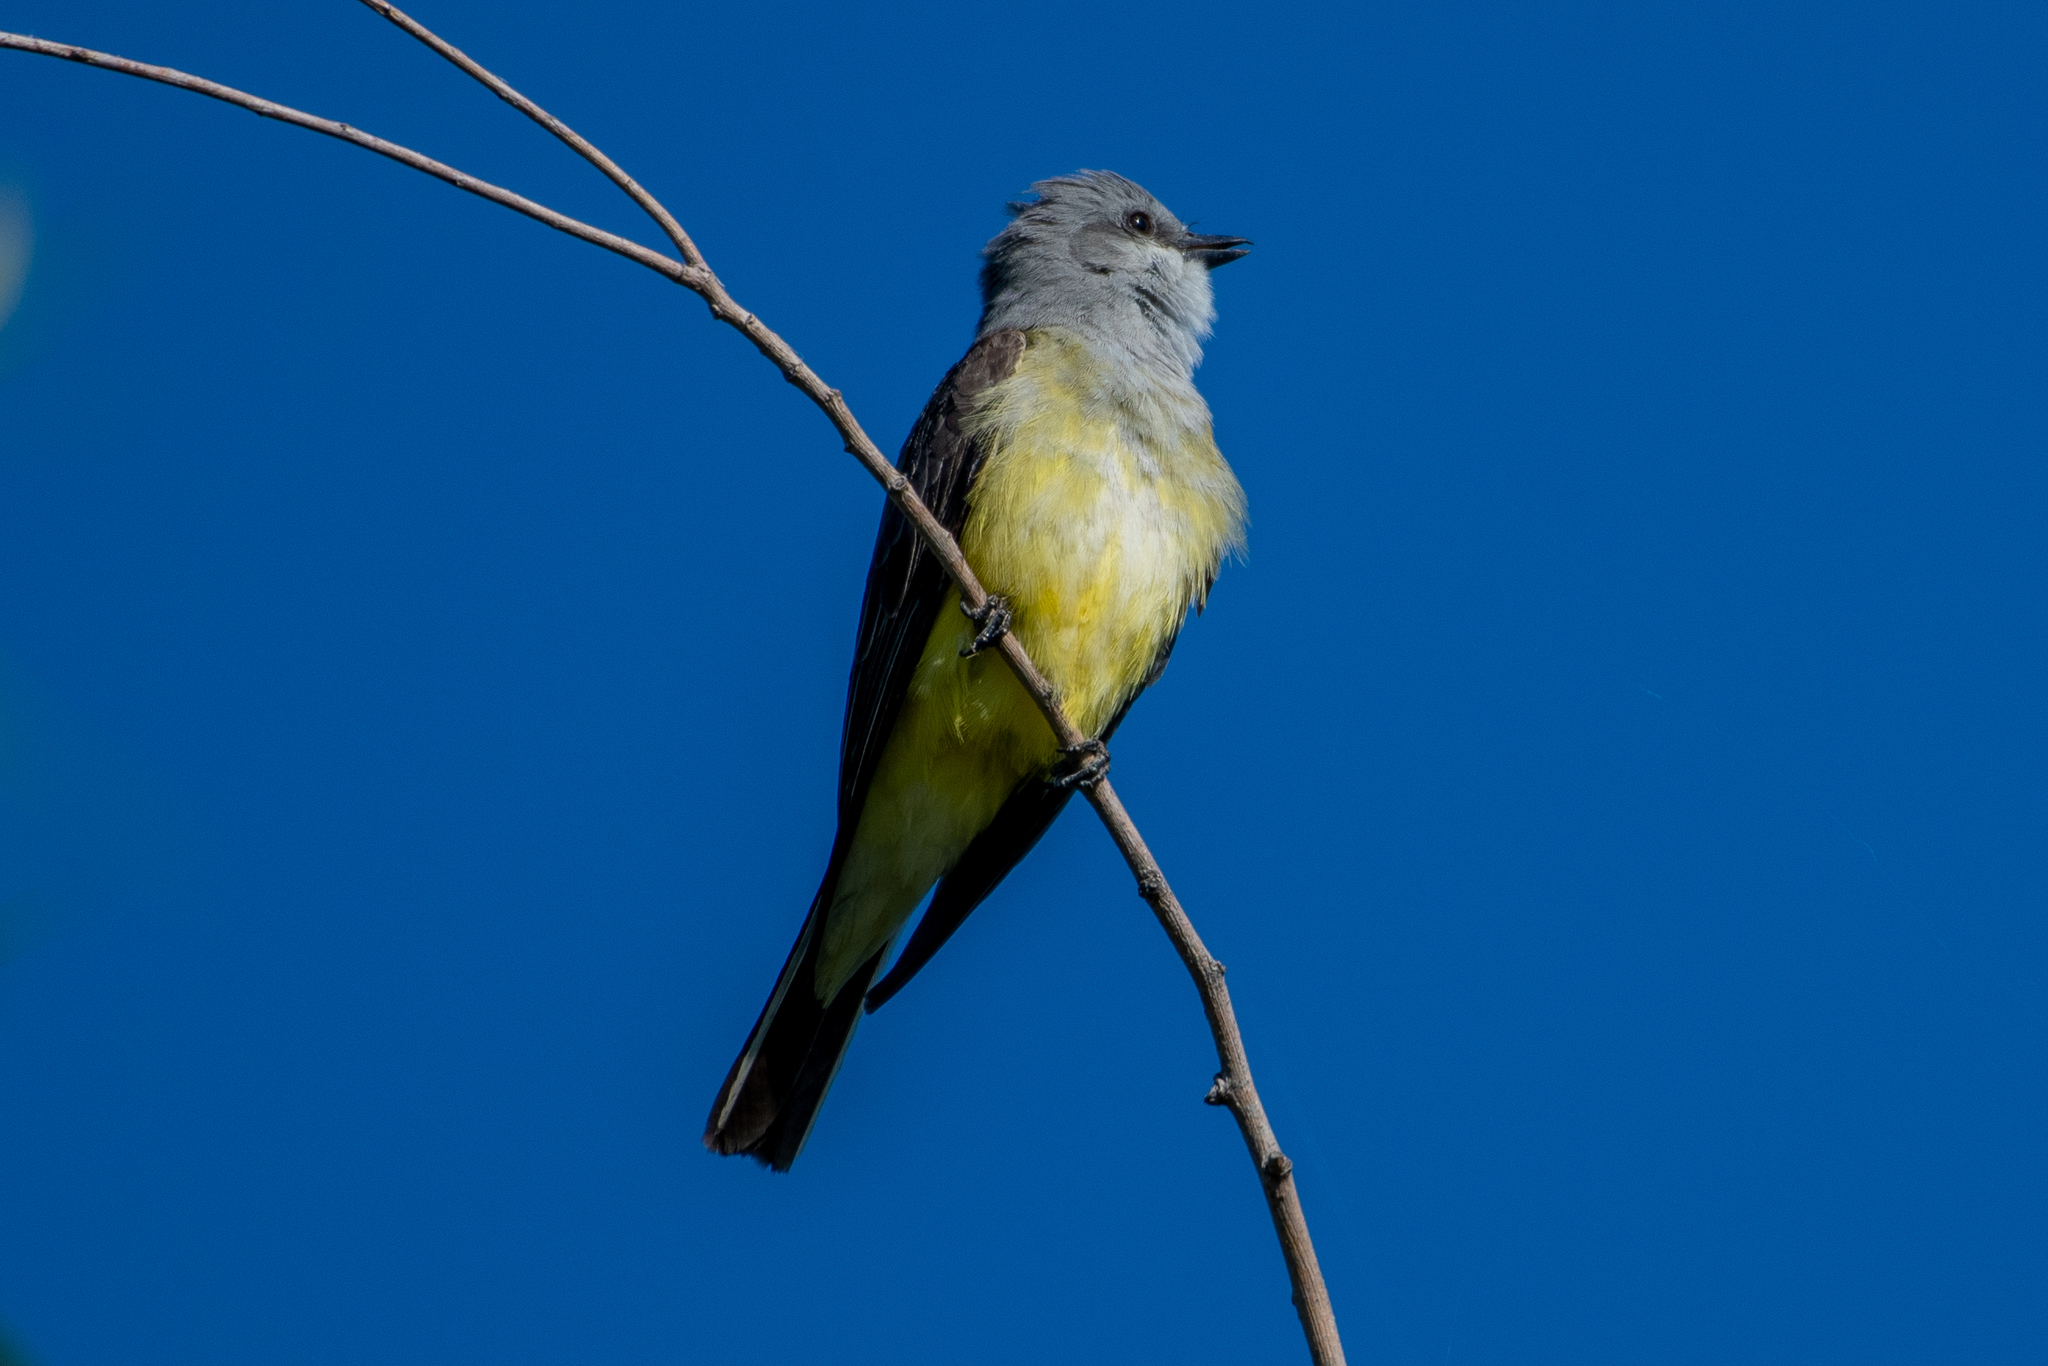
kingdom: Animalia
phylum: Chordata
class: Aves
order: Passeriformes
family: Tyrannidae
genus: Tyrannus
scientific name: Tyrannus verticalis
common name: Western kingbird
